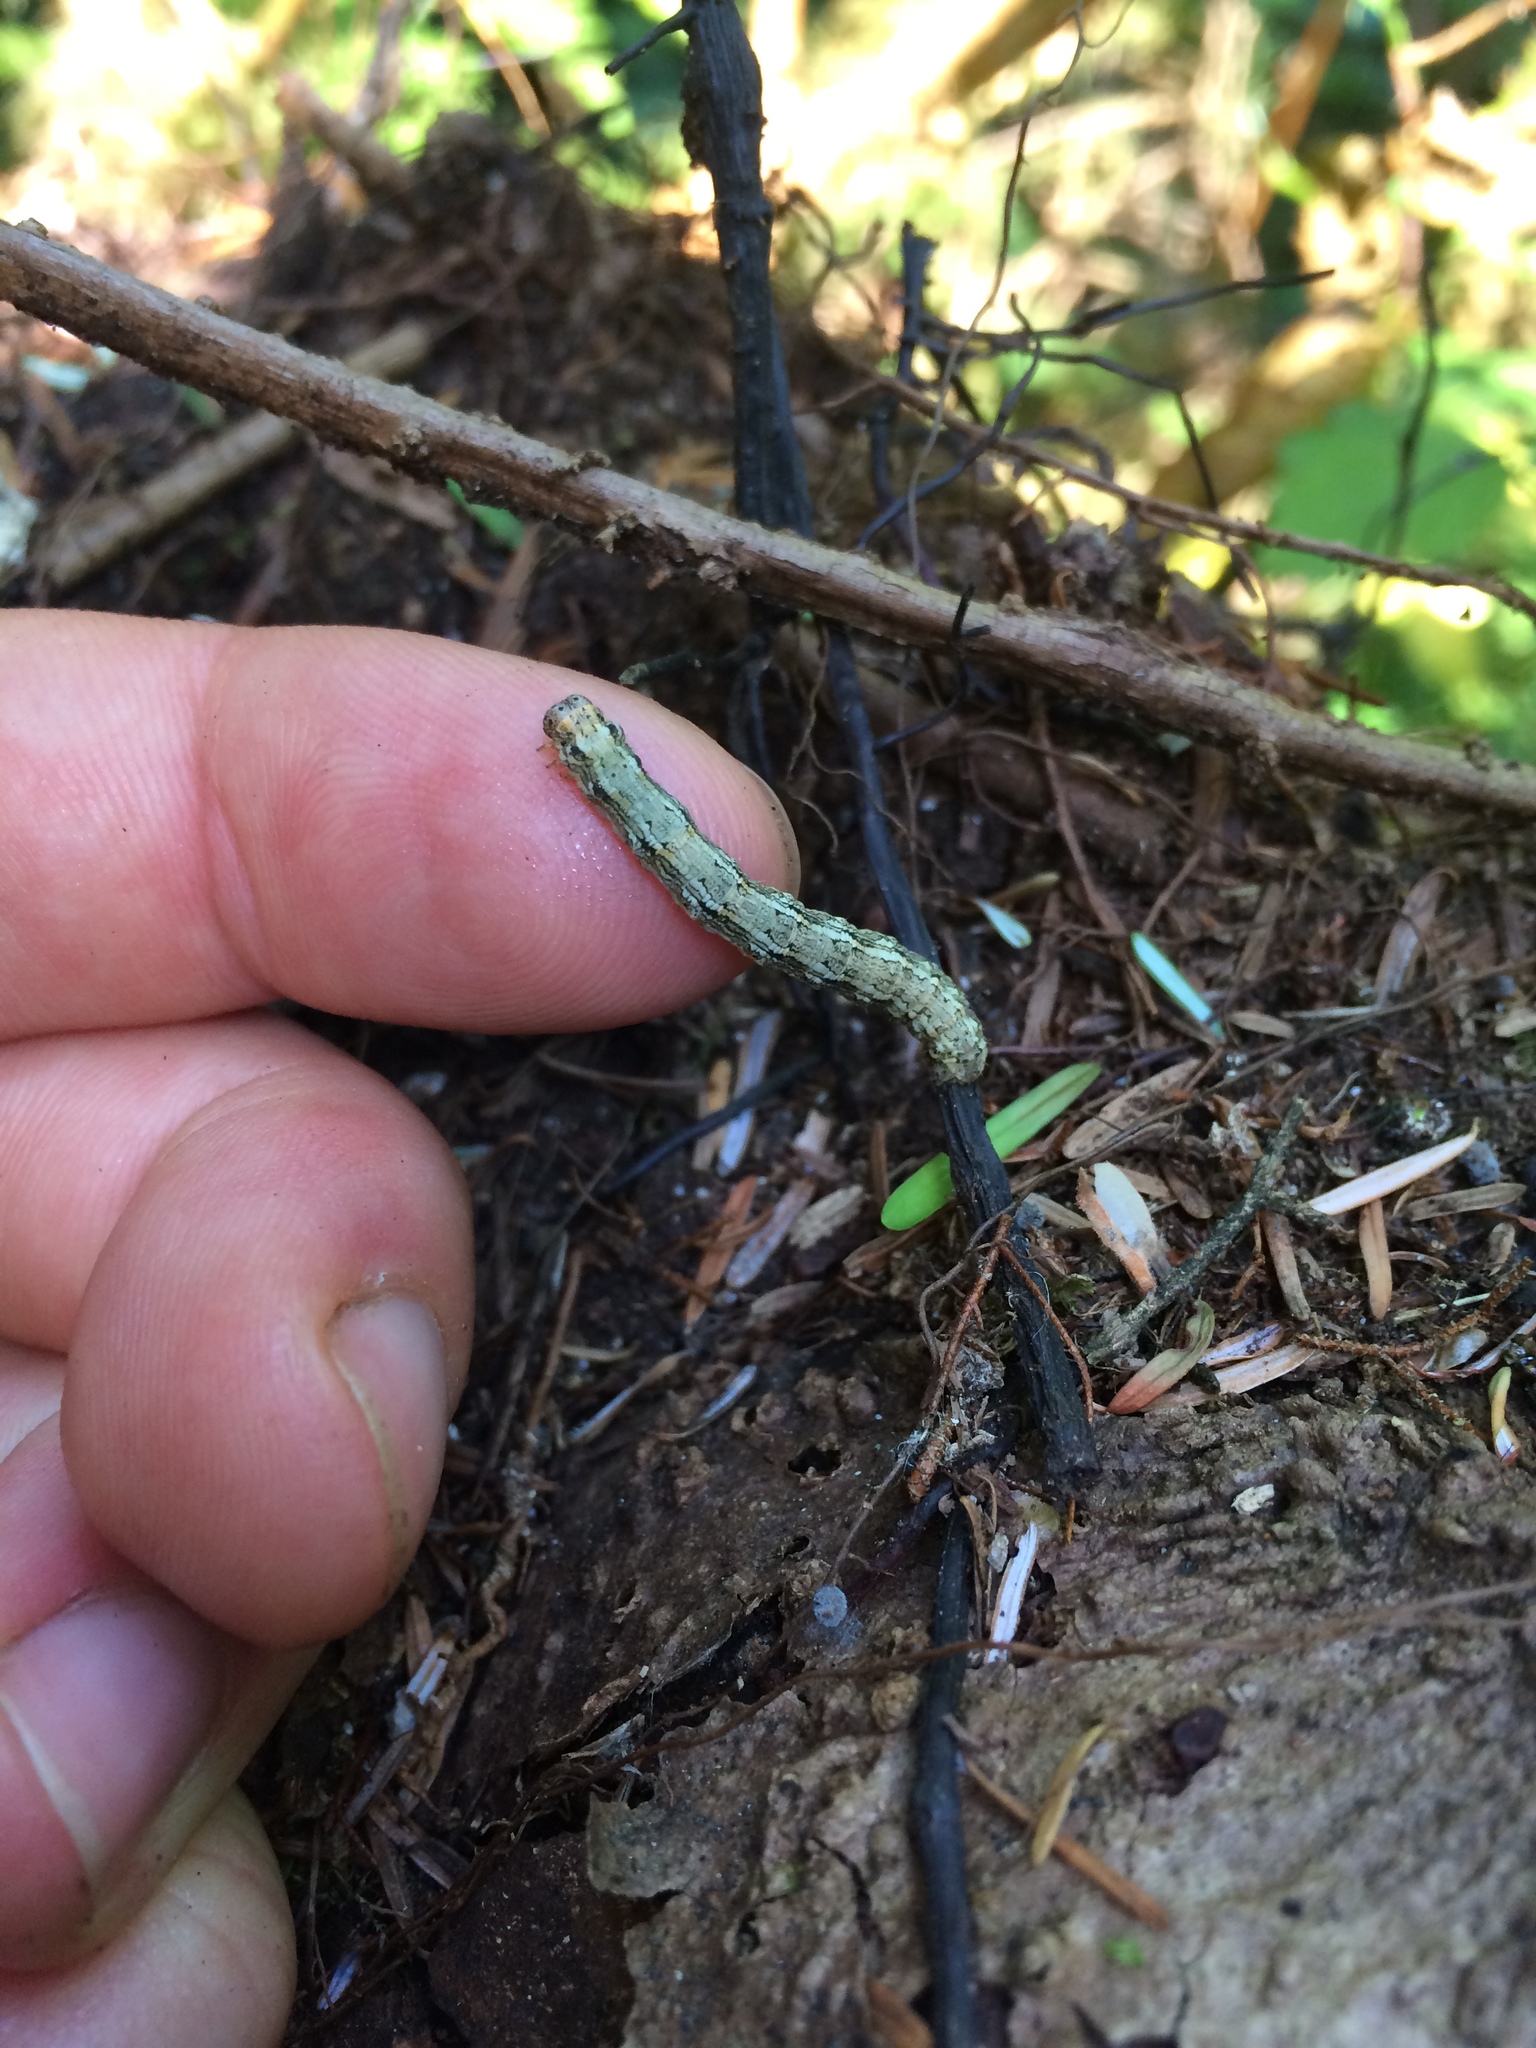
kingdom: Animalia
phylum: Arthropoda
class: Insecta
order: Lepidoptera
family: Geometridae
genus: Lambdina
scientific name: Lambdina fiscellaria
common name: Hemlock looper
